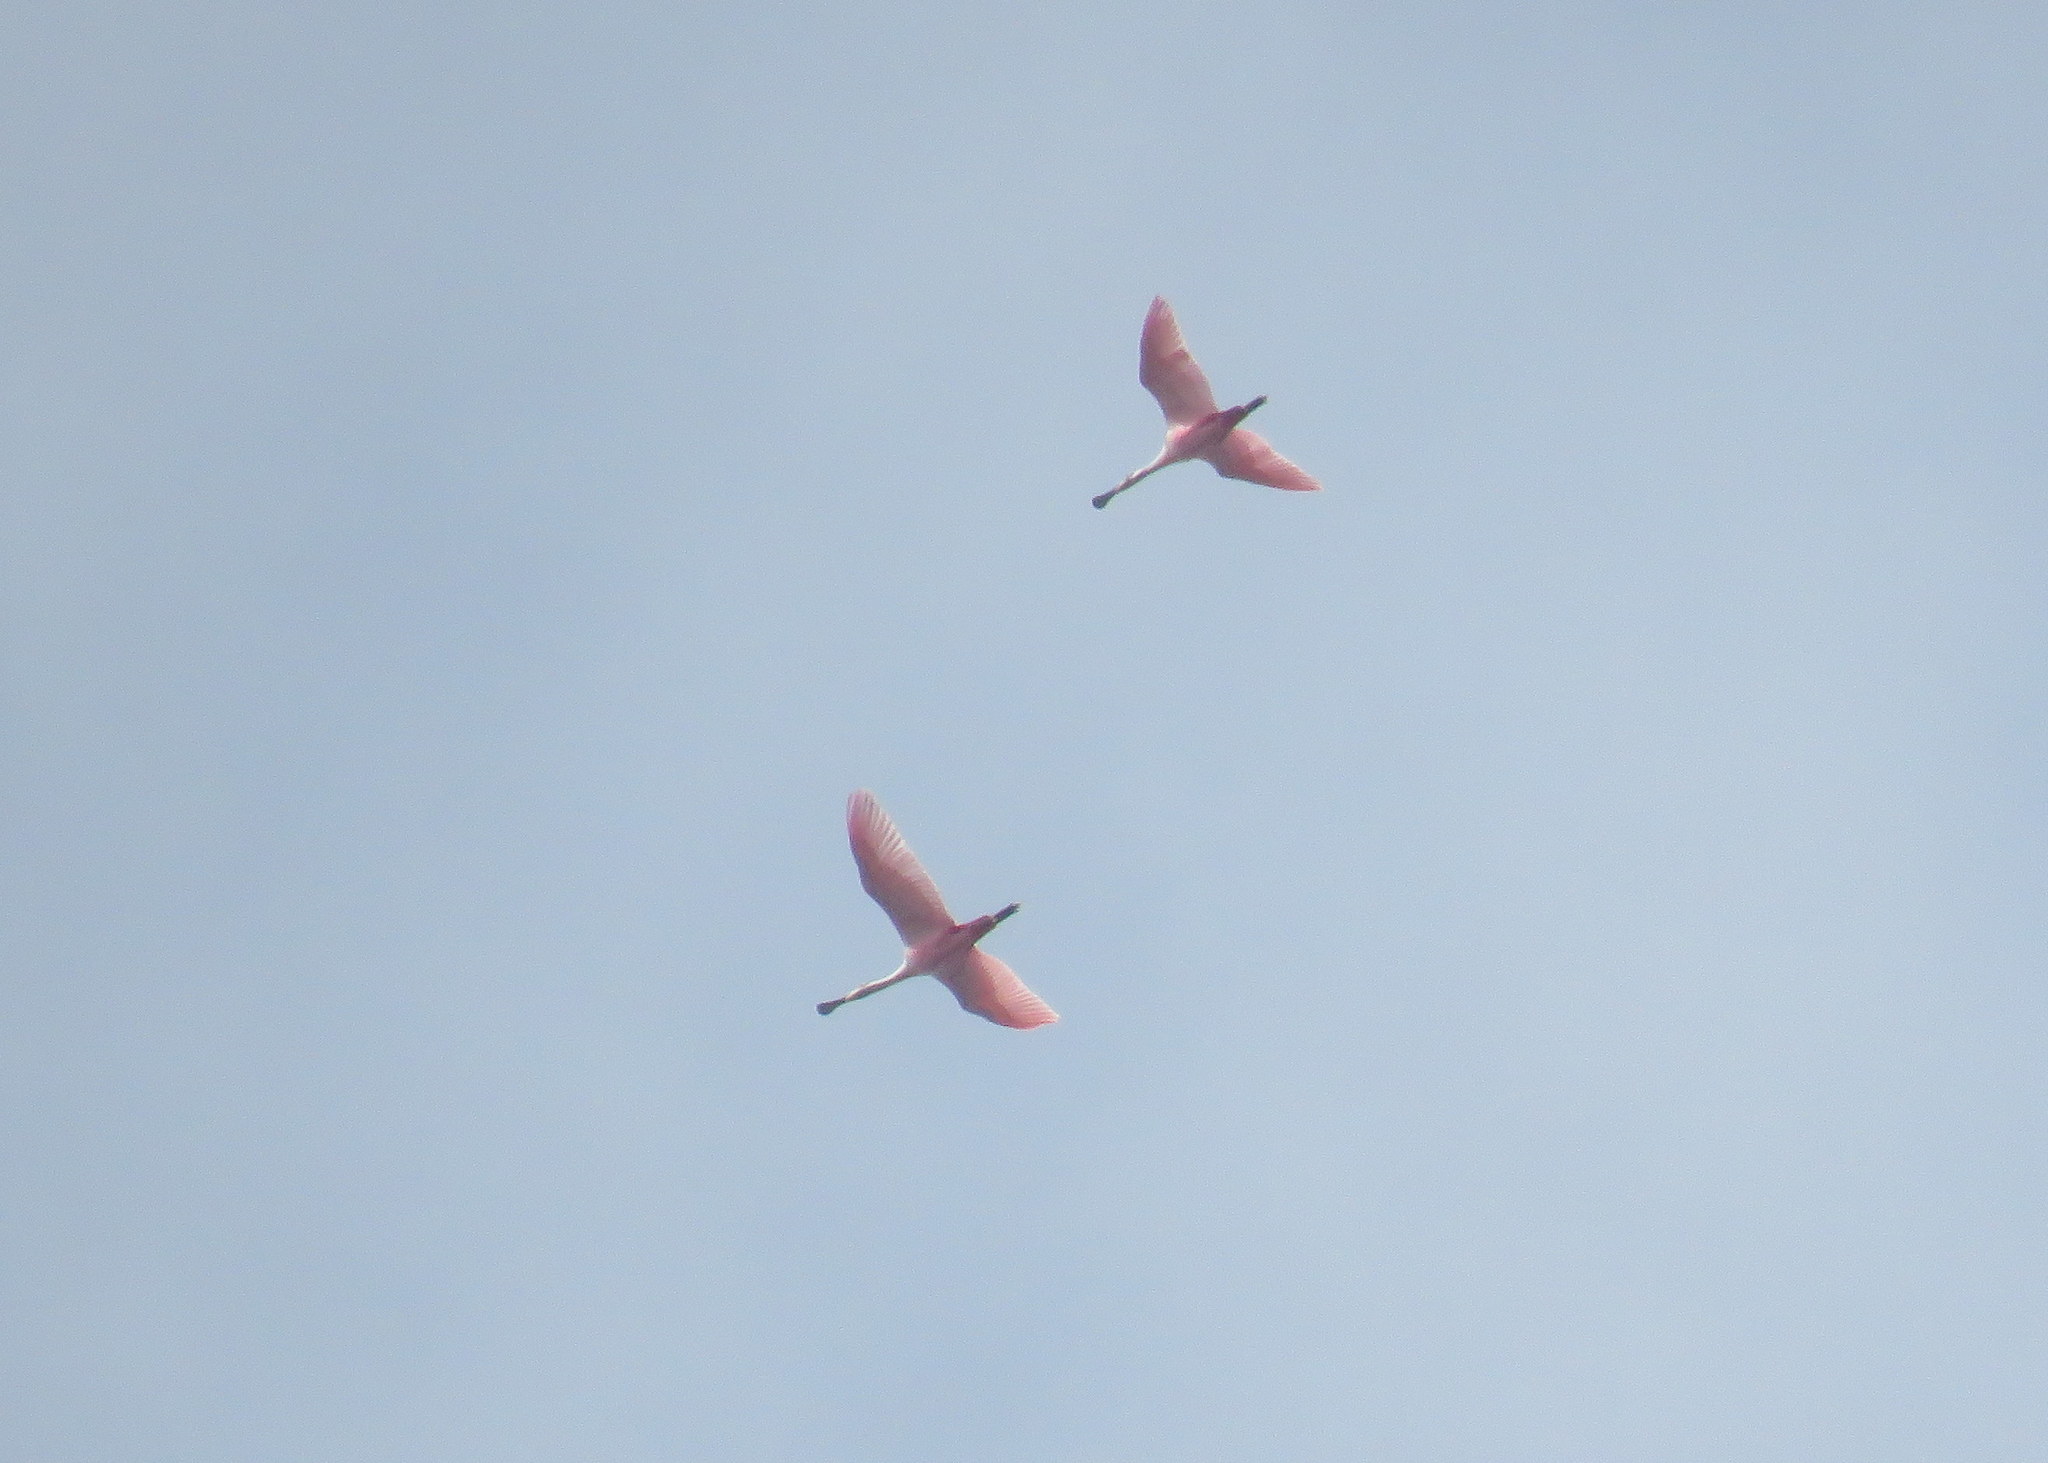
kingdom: Animalia
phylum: Chordata
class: Aves
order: Pelecaniformes
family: Threskiornithidae
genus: Platalea
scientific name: Platalea ajaja
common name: Roseate spoonbill
